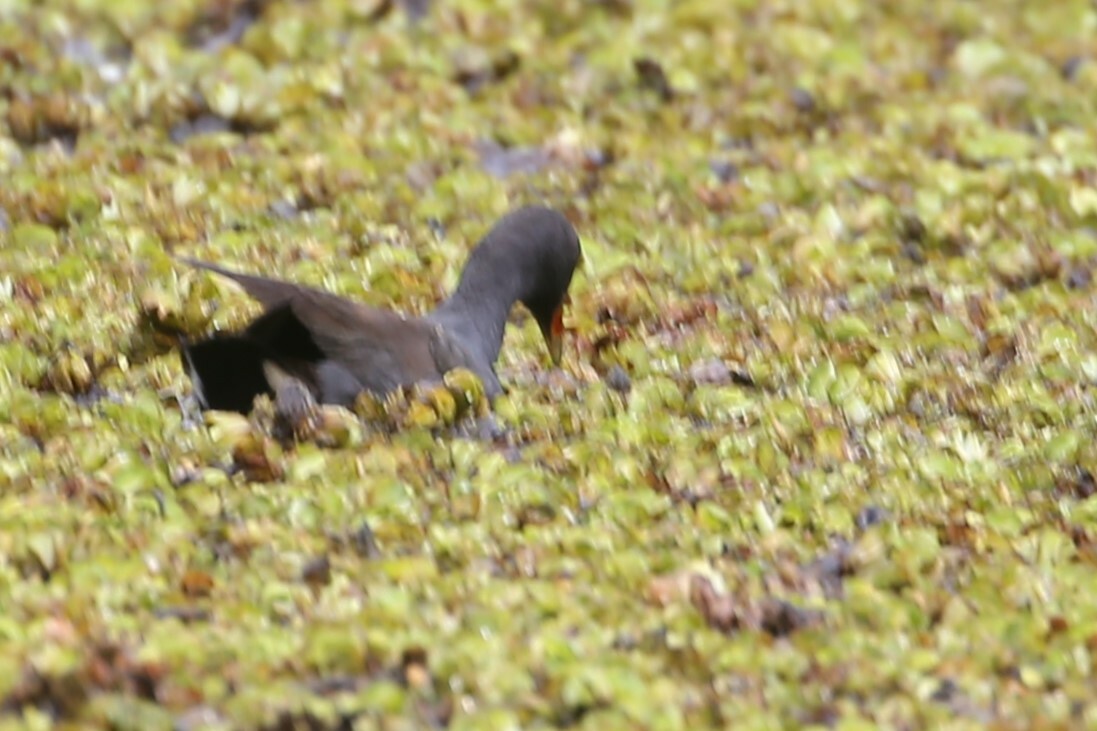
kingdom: Animalia
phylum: Chordata
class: Aves
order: Gruiformes
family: Rallidae
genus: Gallinula
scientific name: Gallinula tenebrosa
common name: Dusky moorhen
